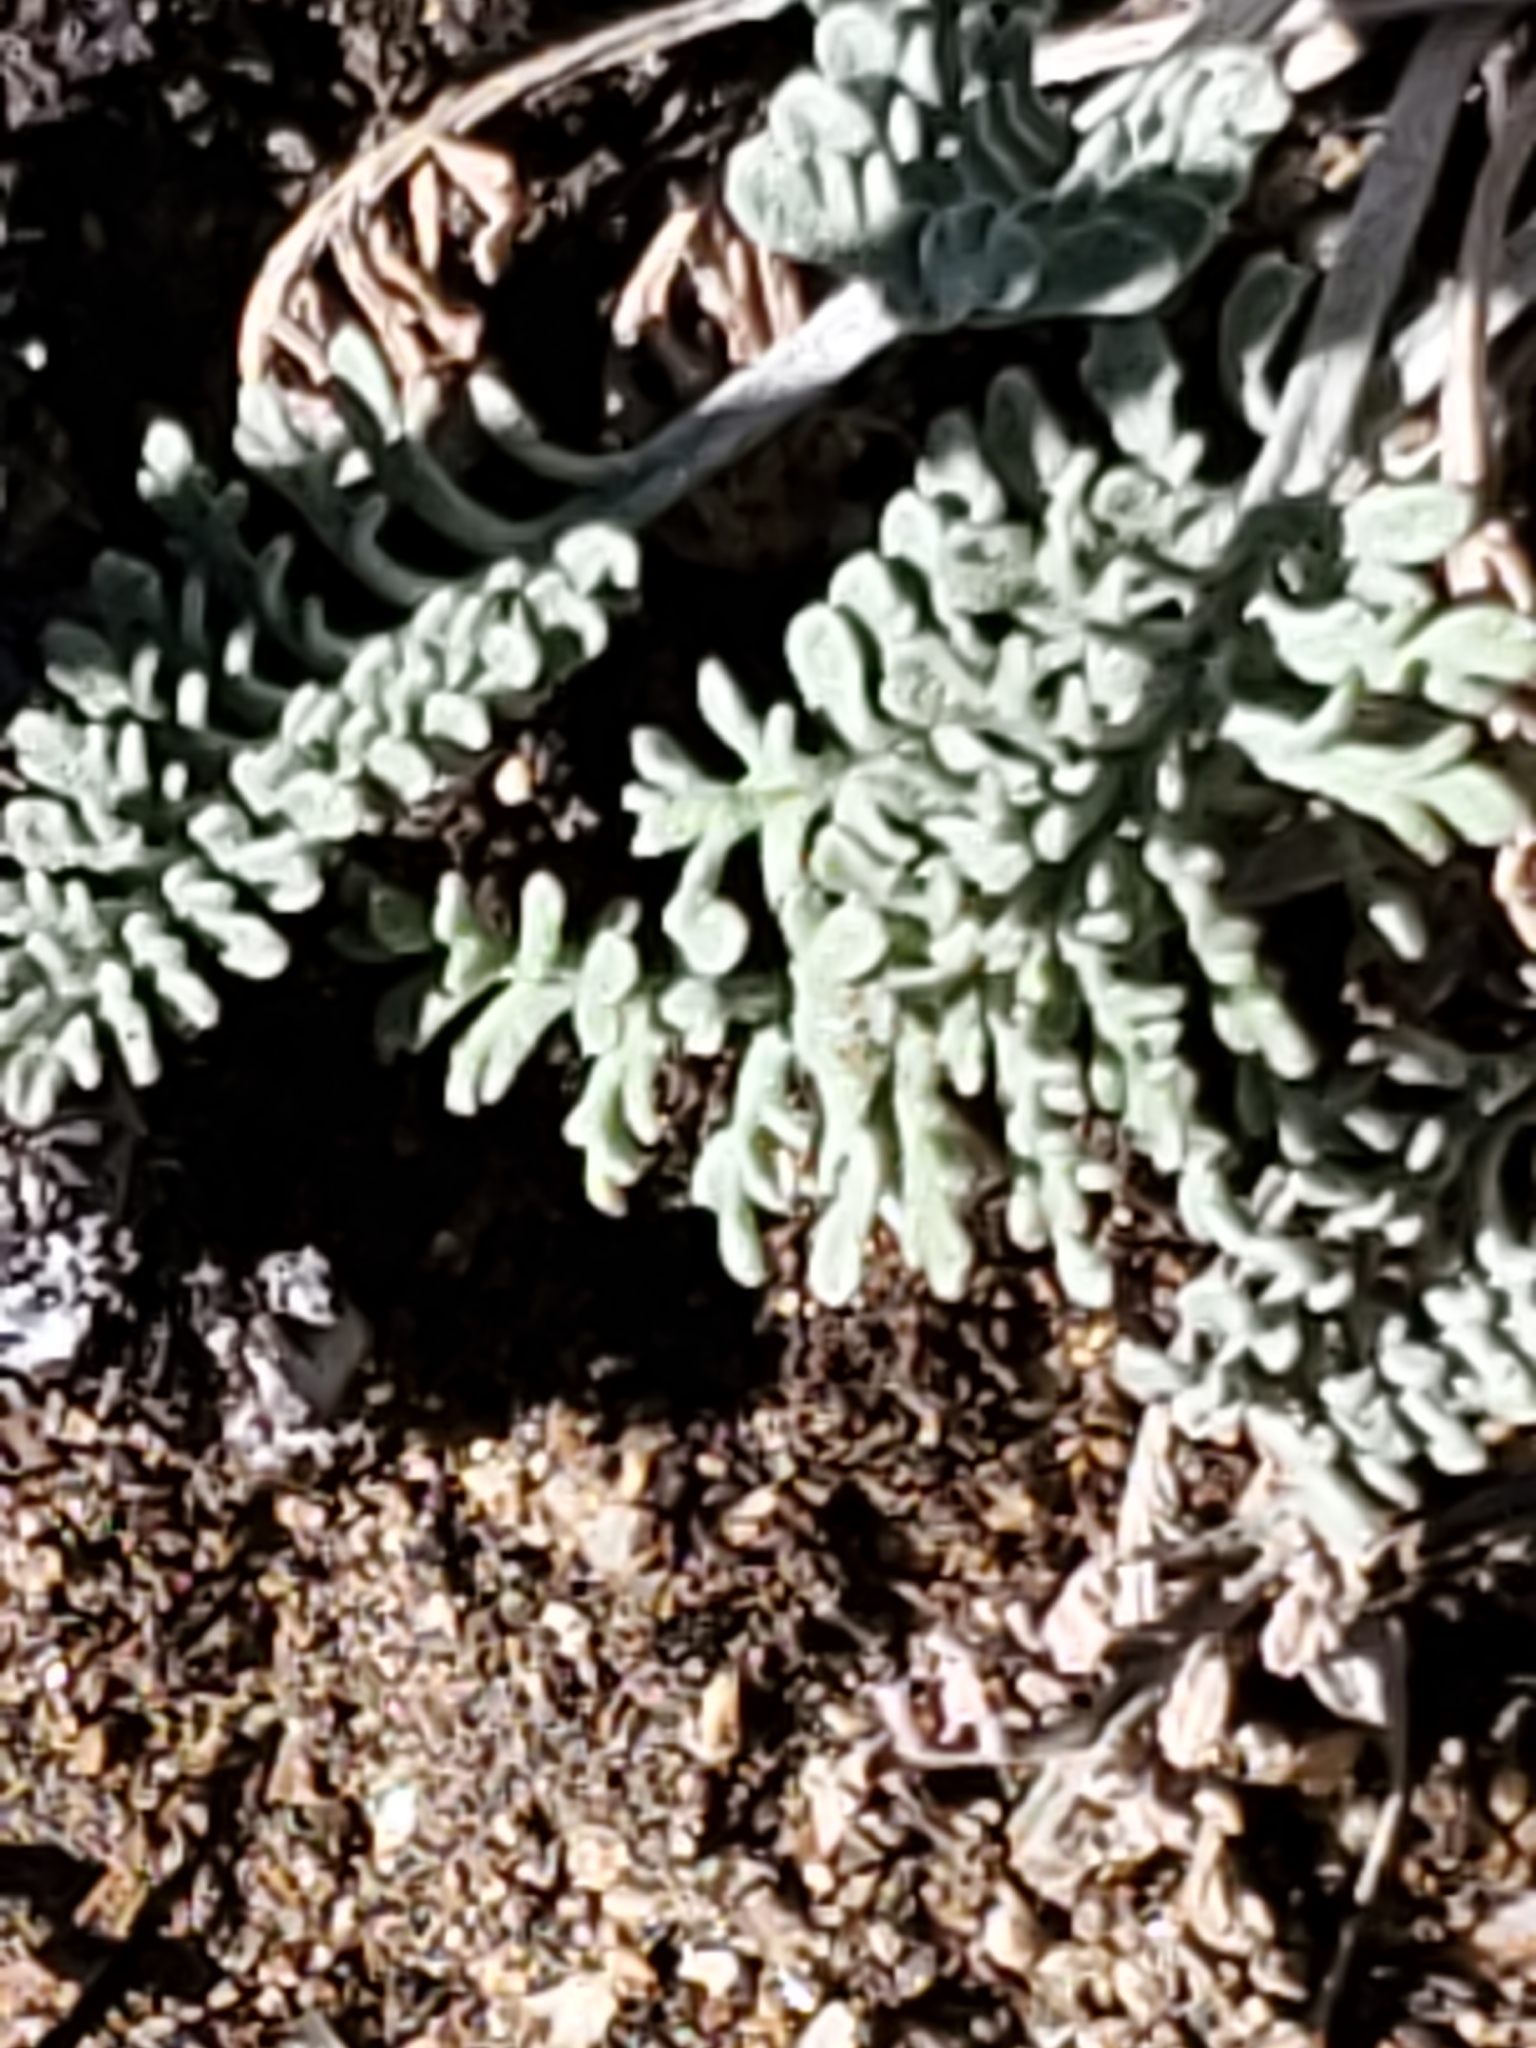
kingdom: Plantae
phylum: Tracheophyta
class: Magnoliopsida
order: Asterales
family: Asteraceae
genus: Chaenactis
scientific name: Chaenactis douglasii
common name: Hoary pincushion
